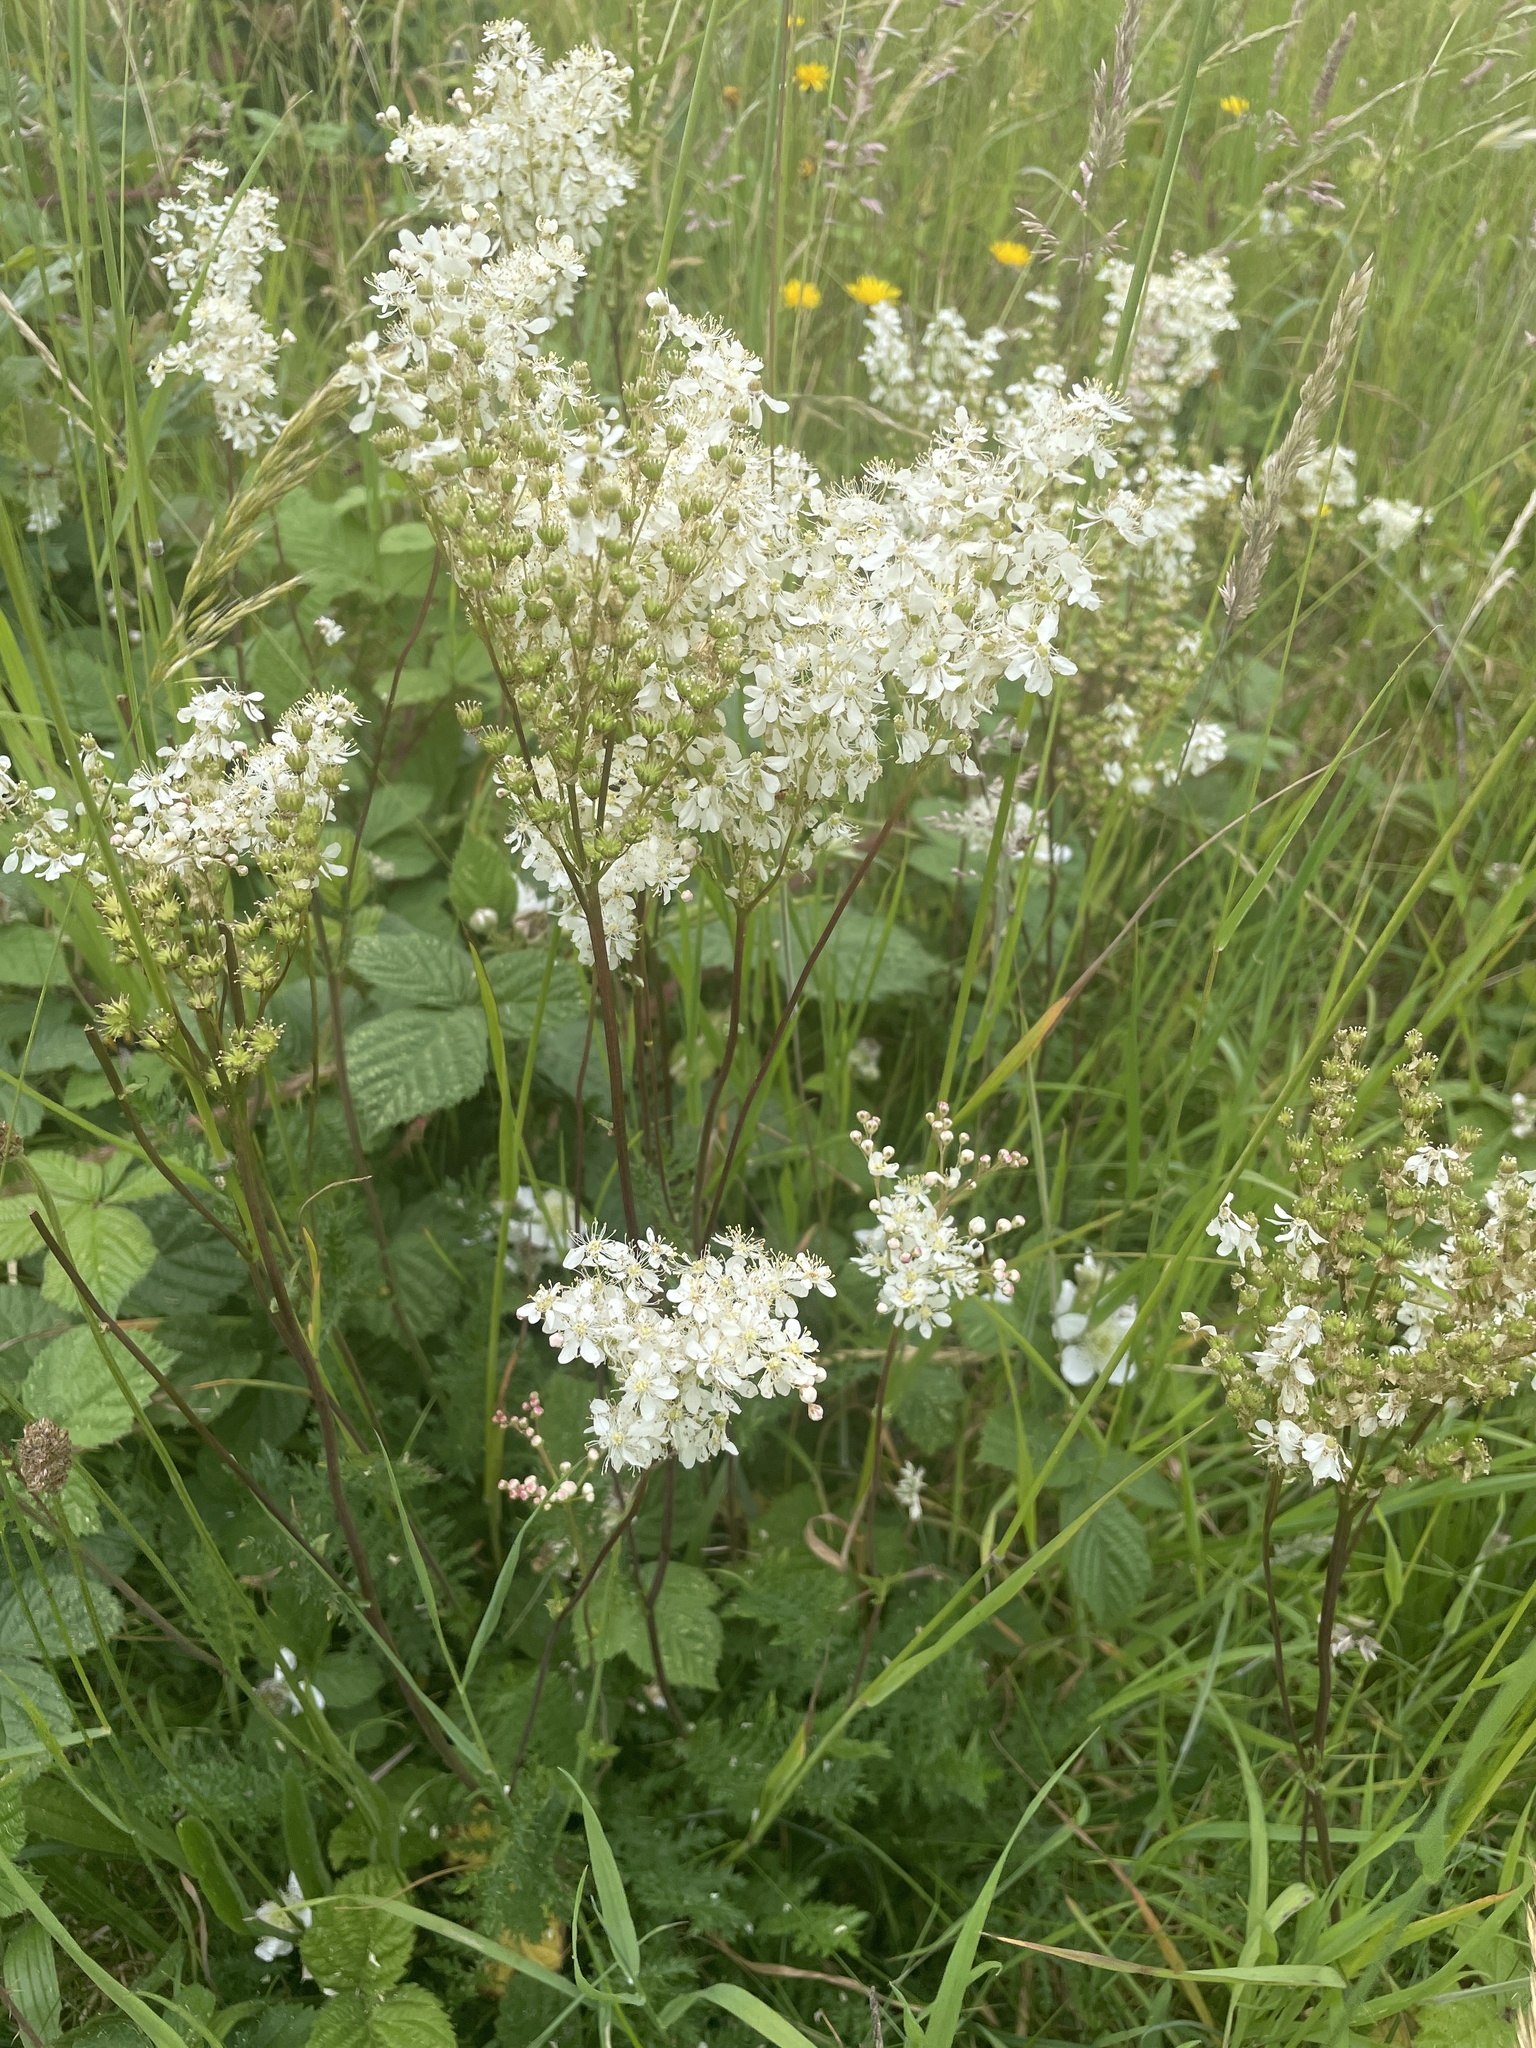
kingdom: Plantae
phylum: Tracheophyta
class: Magnoliopsida
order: Rosales
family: Rosaceae
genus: Filipendula
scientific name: Filipendula vulgaris
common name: Dropwort
